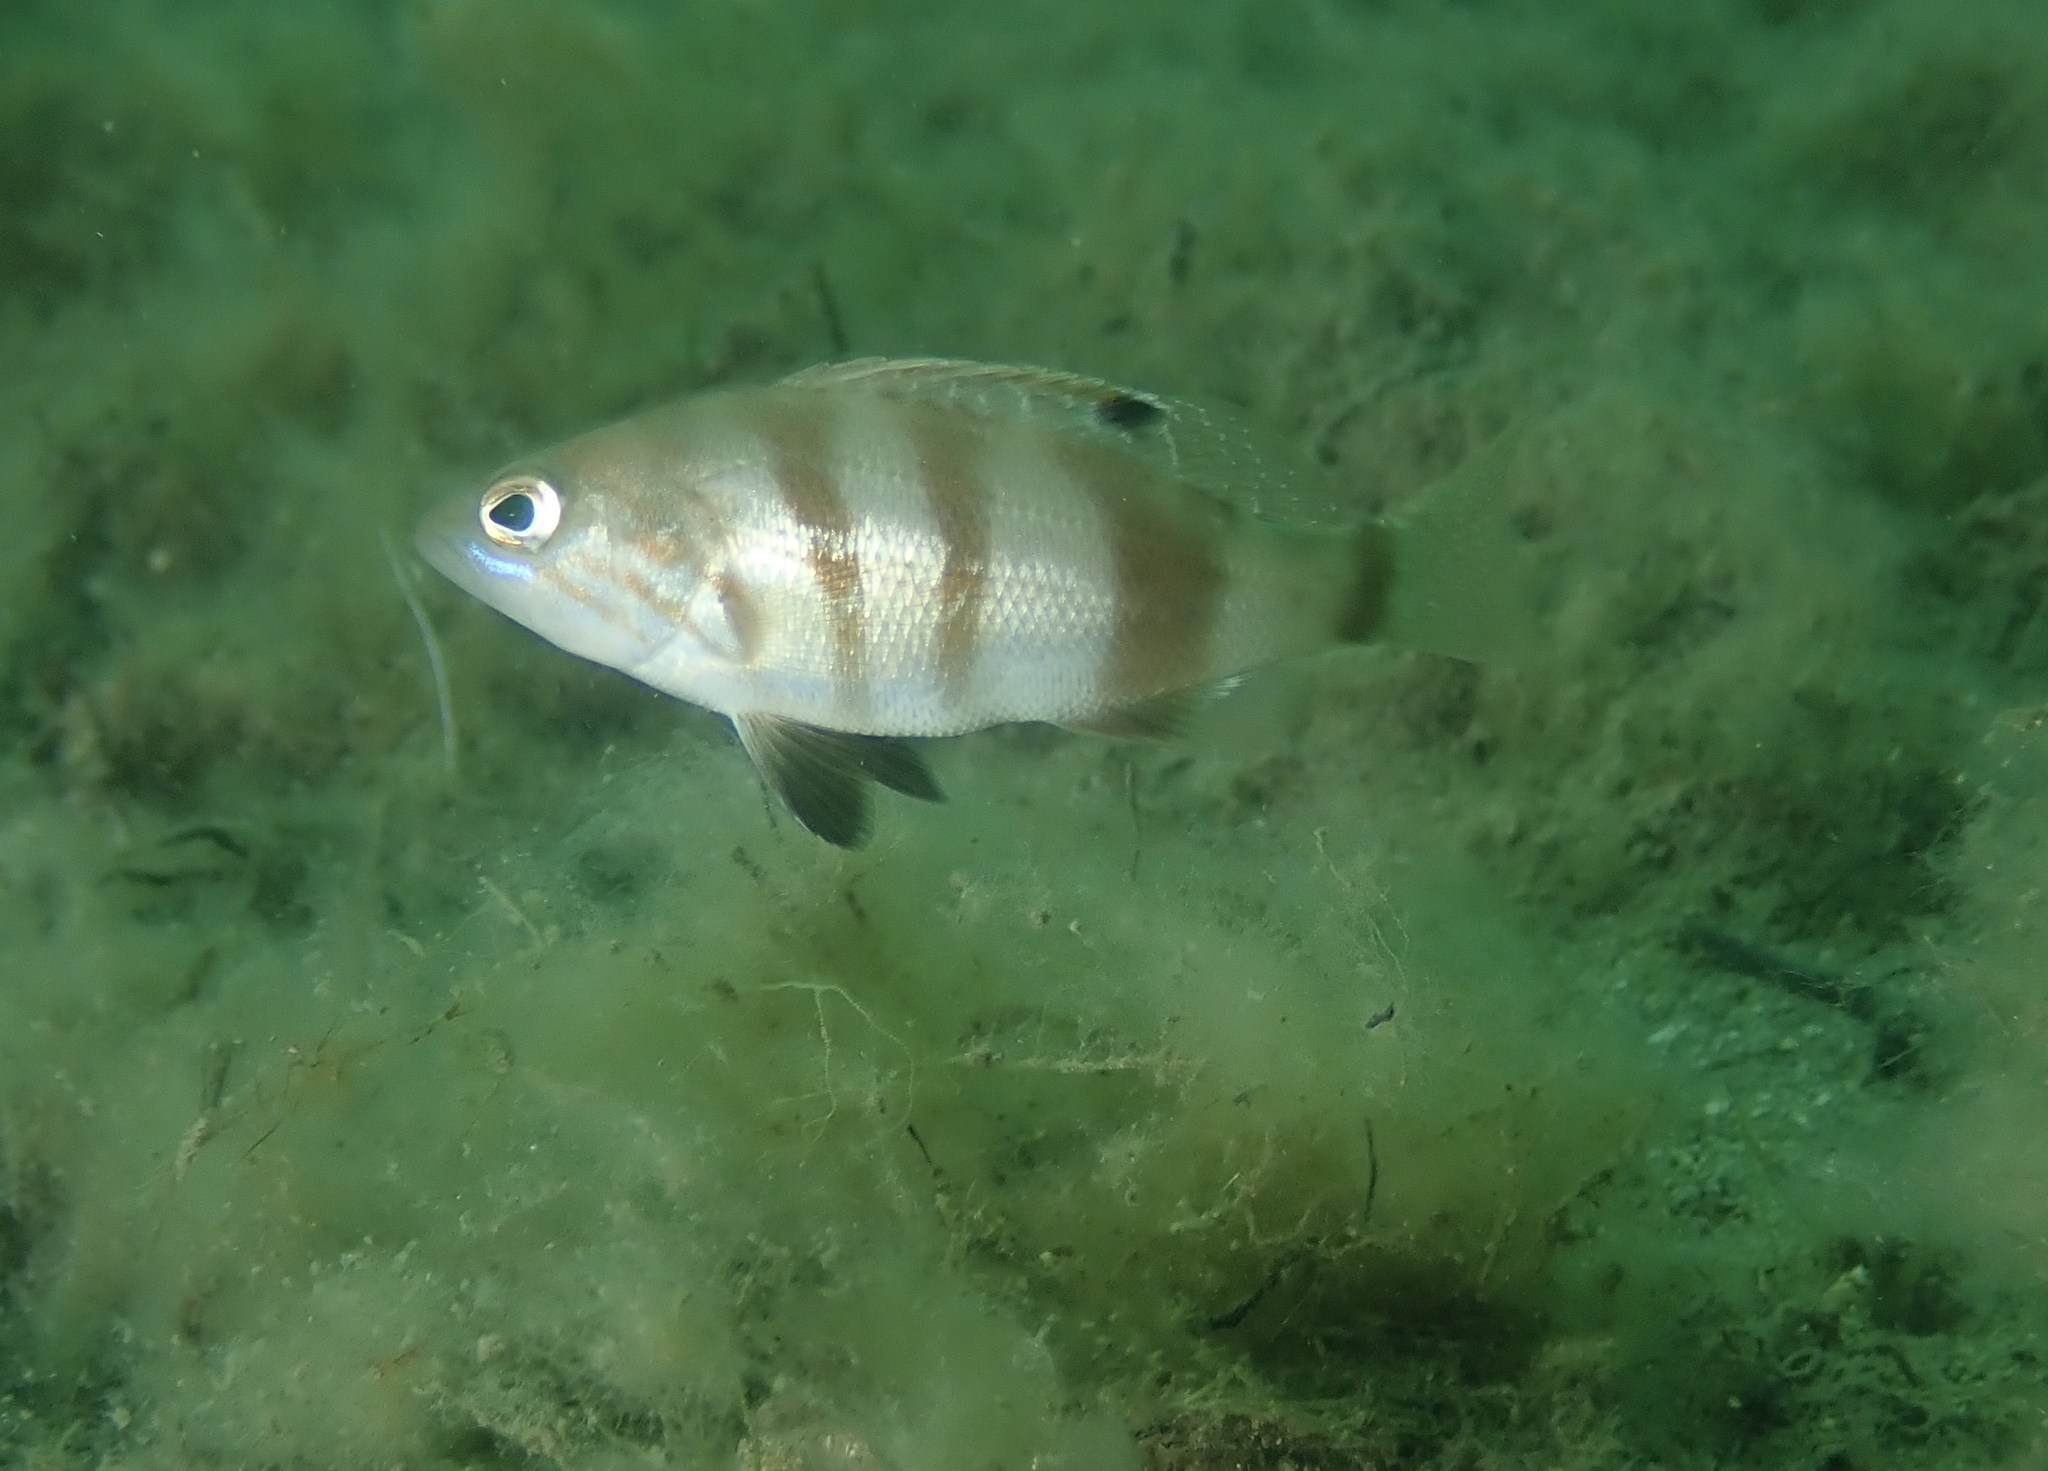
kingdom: Animalia
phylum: Chordata
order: Perciformes
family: Serranidae
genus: Serranus
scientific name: Serranus hepatus
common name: Brown comber
